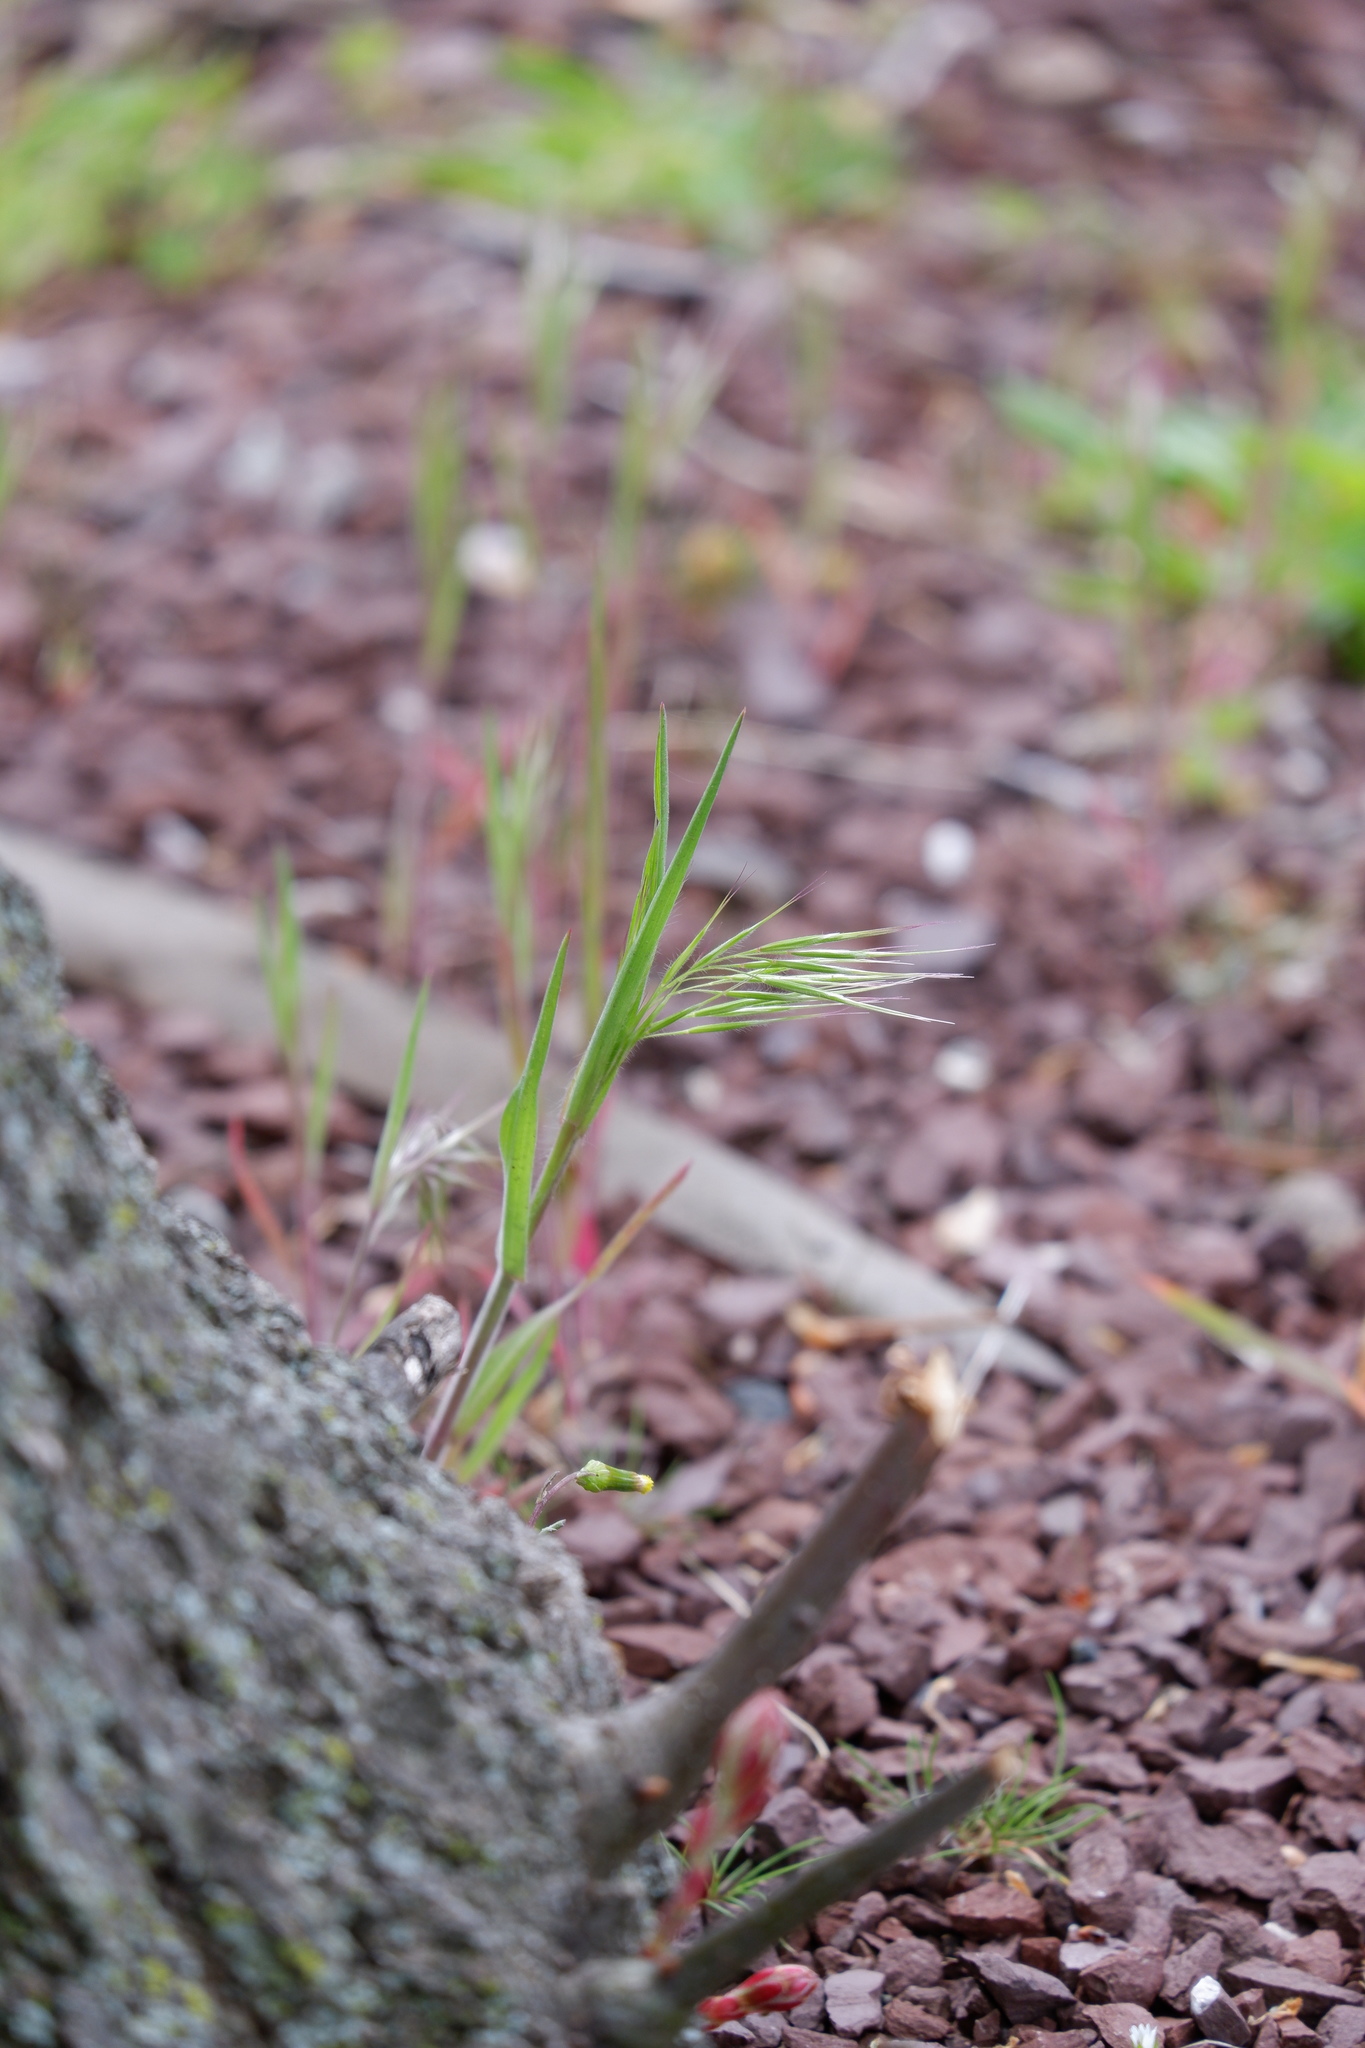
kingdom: Plantae
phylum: Tracheophyta
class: Liliopsida
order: Poales
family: Poaceae
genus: Bromus
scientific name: Bromus tectorum
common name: Cheatgrass
